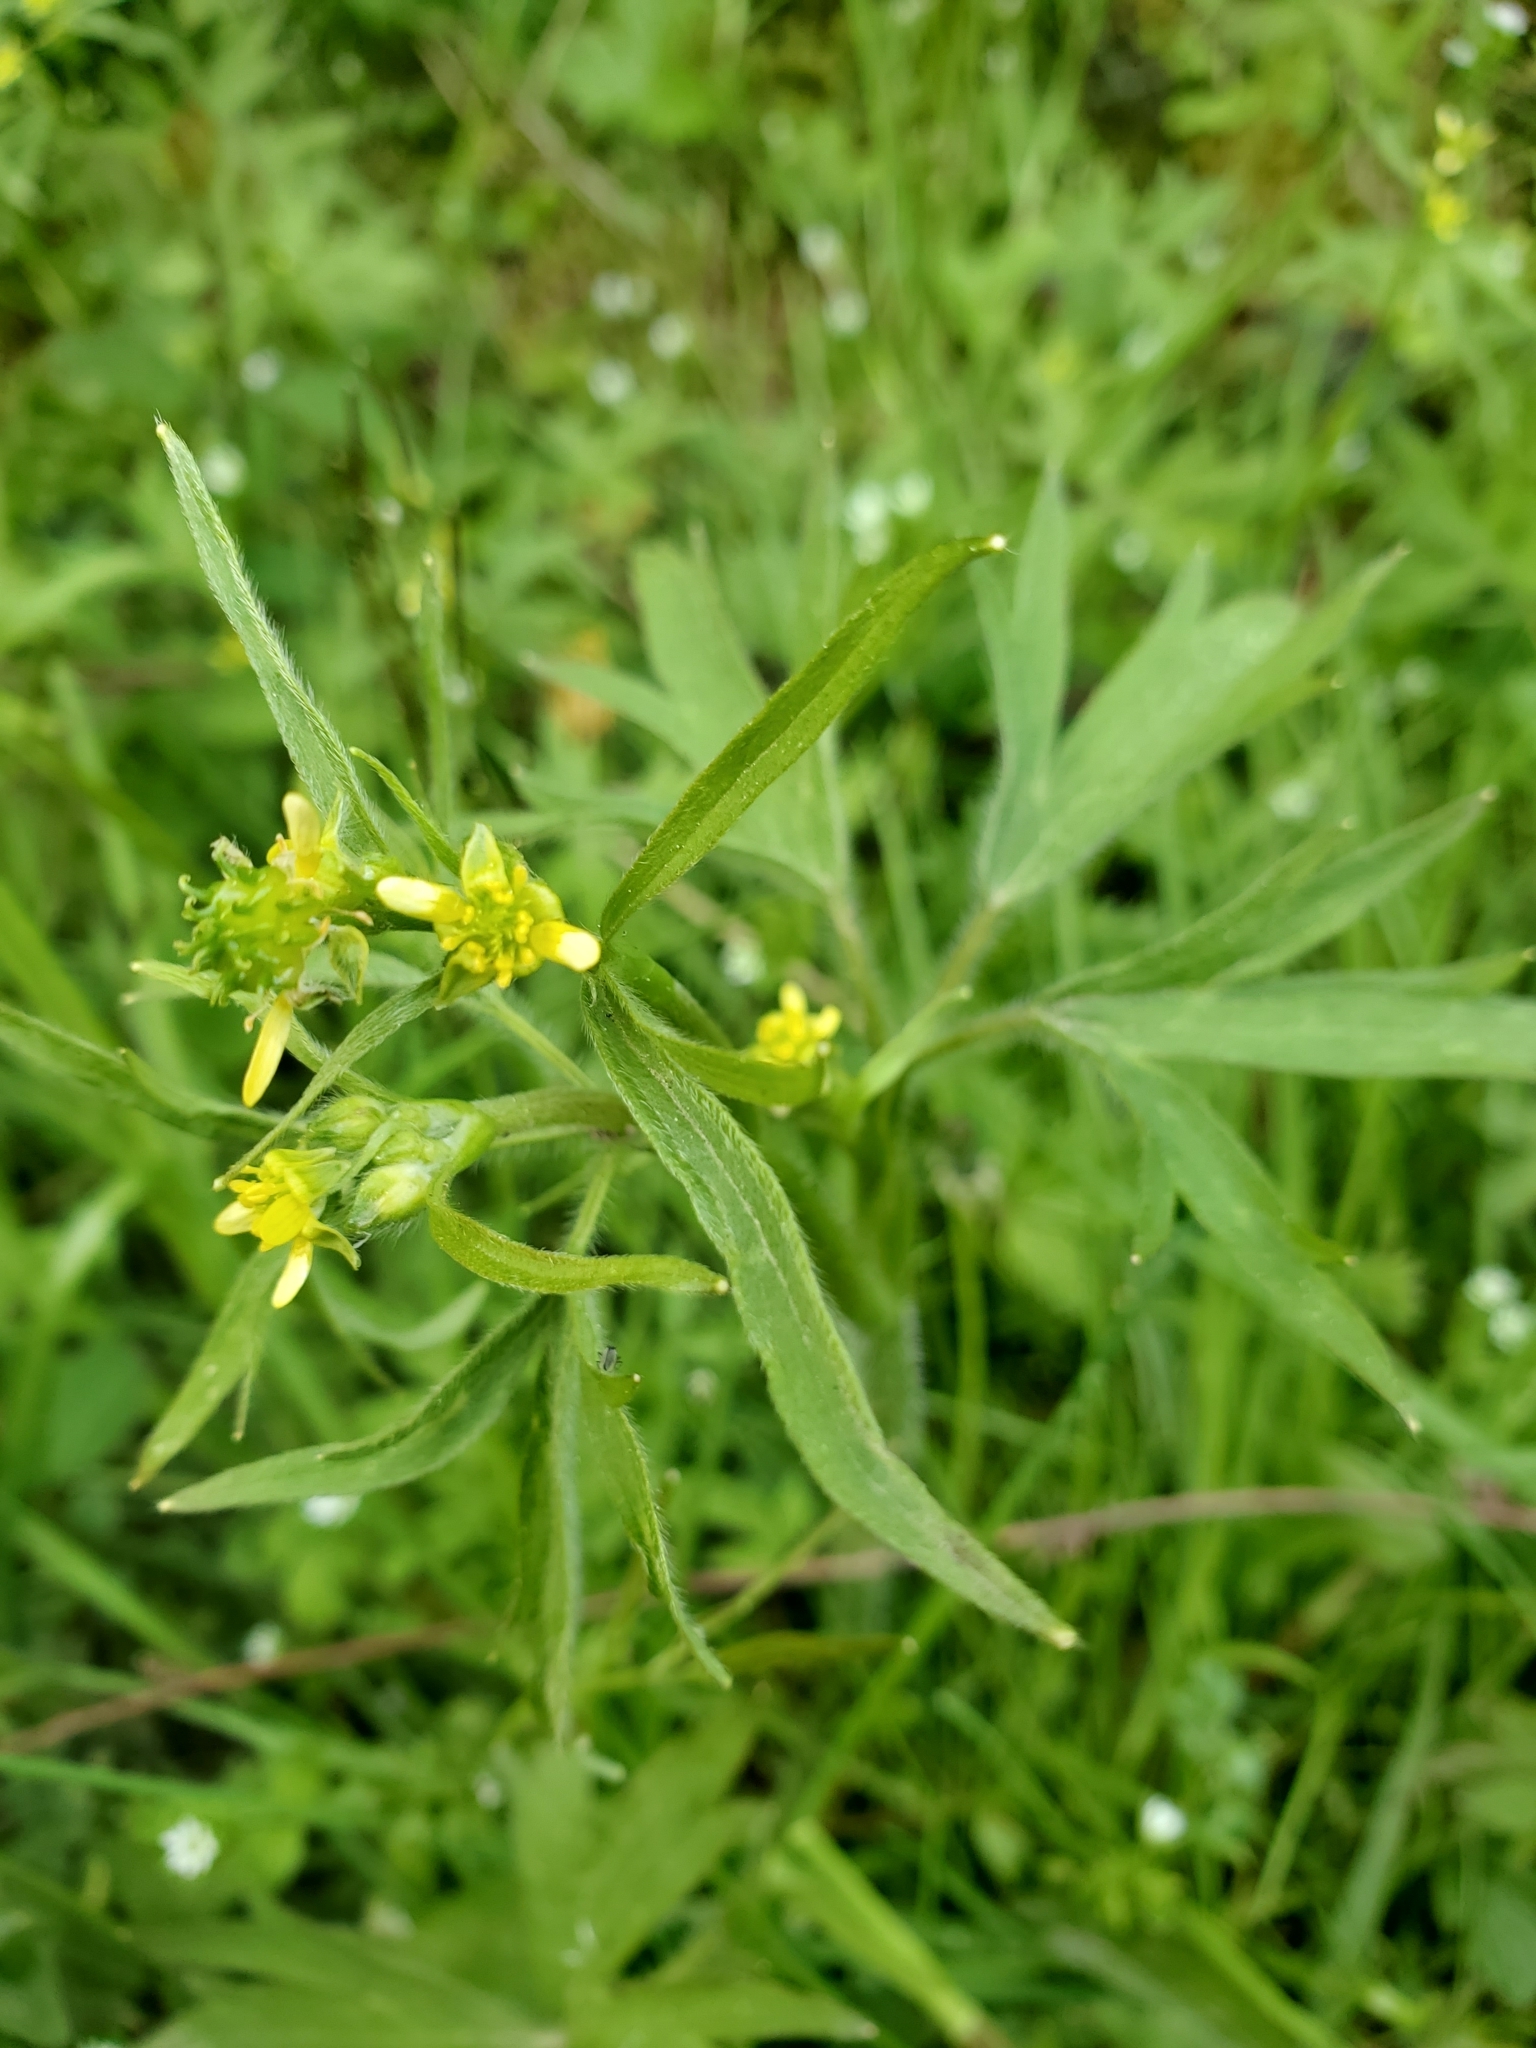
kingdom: Plantae
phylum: Tracheophyta
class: Magnoliopsida
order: Ranunculales
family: Ranunculaceae
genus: Ranunculus
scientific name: Ranunculus uncinatus
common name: Little buttercup
